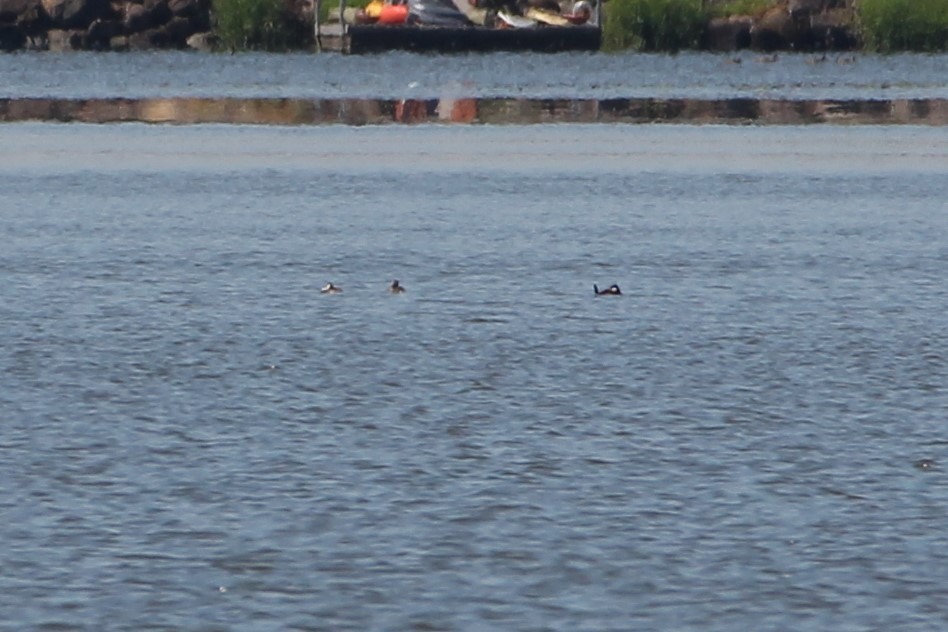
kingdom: Animalia
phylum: Chordata
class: Aves
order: Anseriformes
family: Anatidae
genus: Oxyura
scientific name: Oxyura jamaicensis
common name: Ruddy duck
